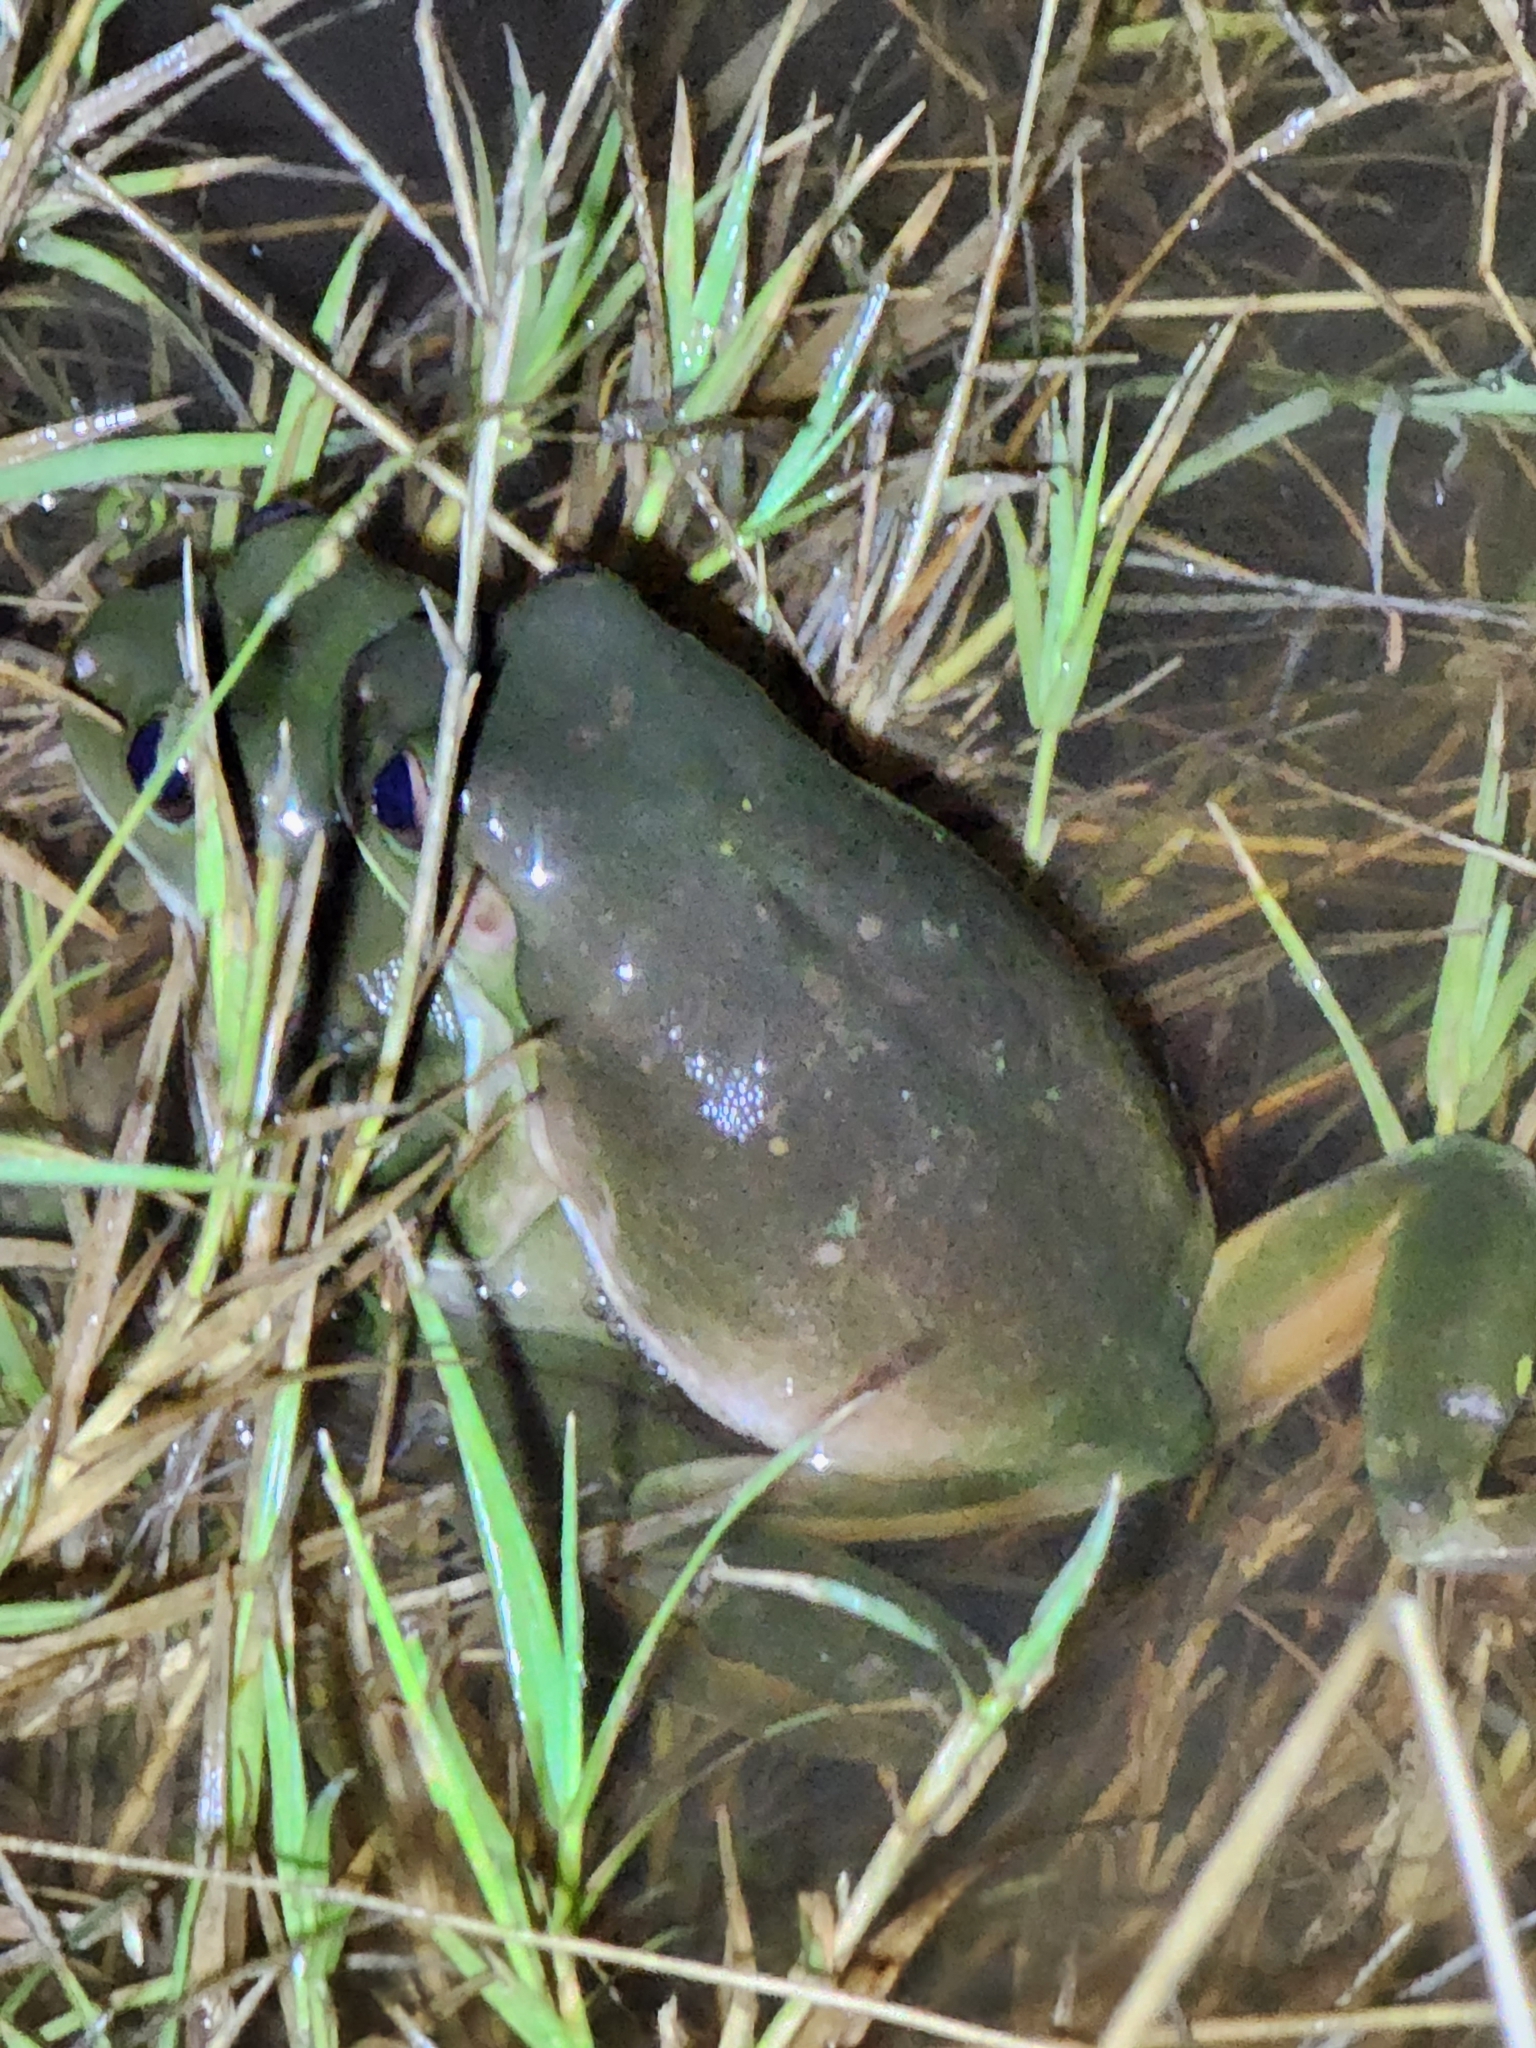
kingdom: Animalia
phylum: Chordata
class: Amphibia
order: Anura
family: Pelodryadidae
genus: Ranoidea
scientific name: Ranoidea caerulea
